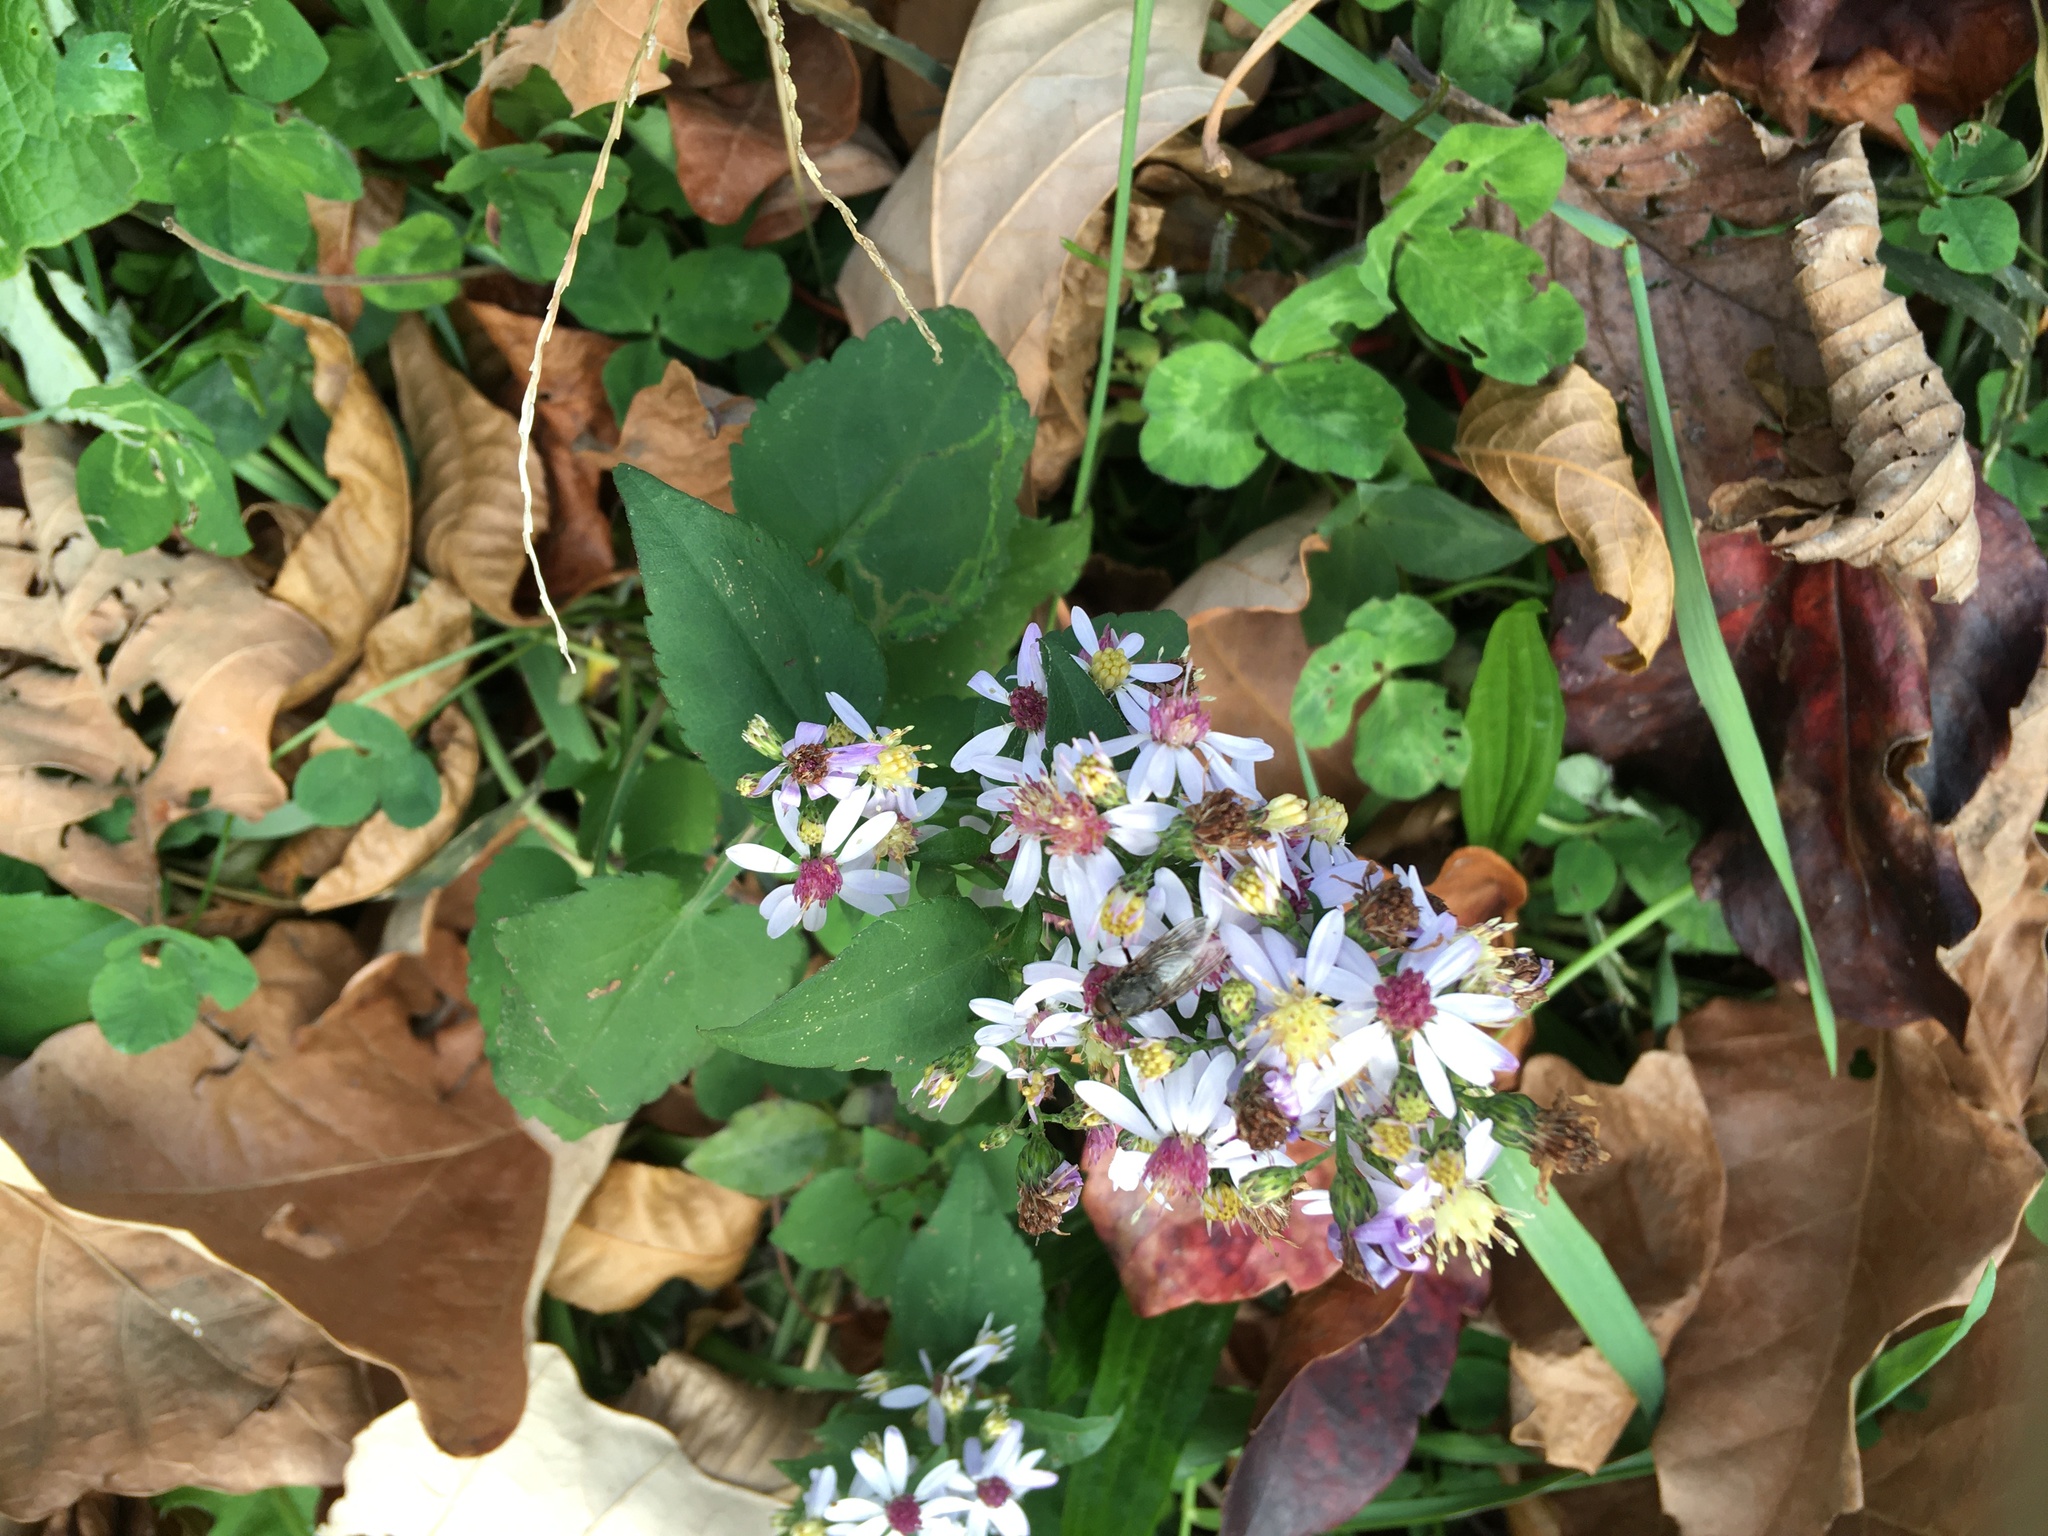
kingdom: Plantae
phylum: Tracheophyta
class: Magnoliopsida
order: Asterales
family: Asteraceae
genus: Symphyotrichum
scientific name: Symphyotrichum cordifolium
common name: Beeweed
